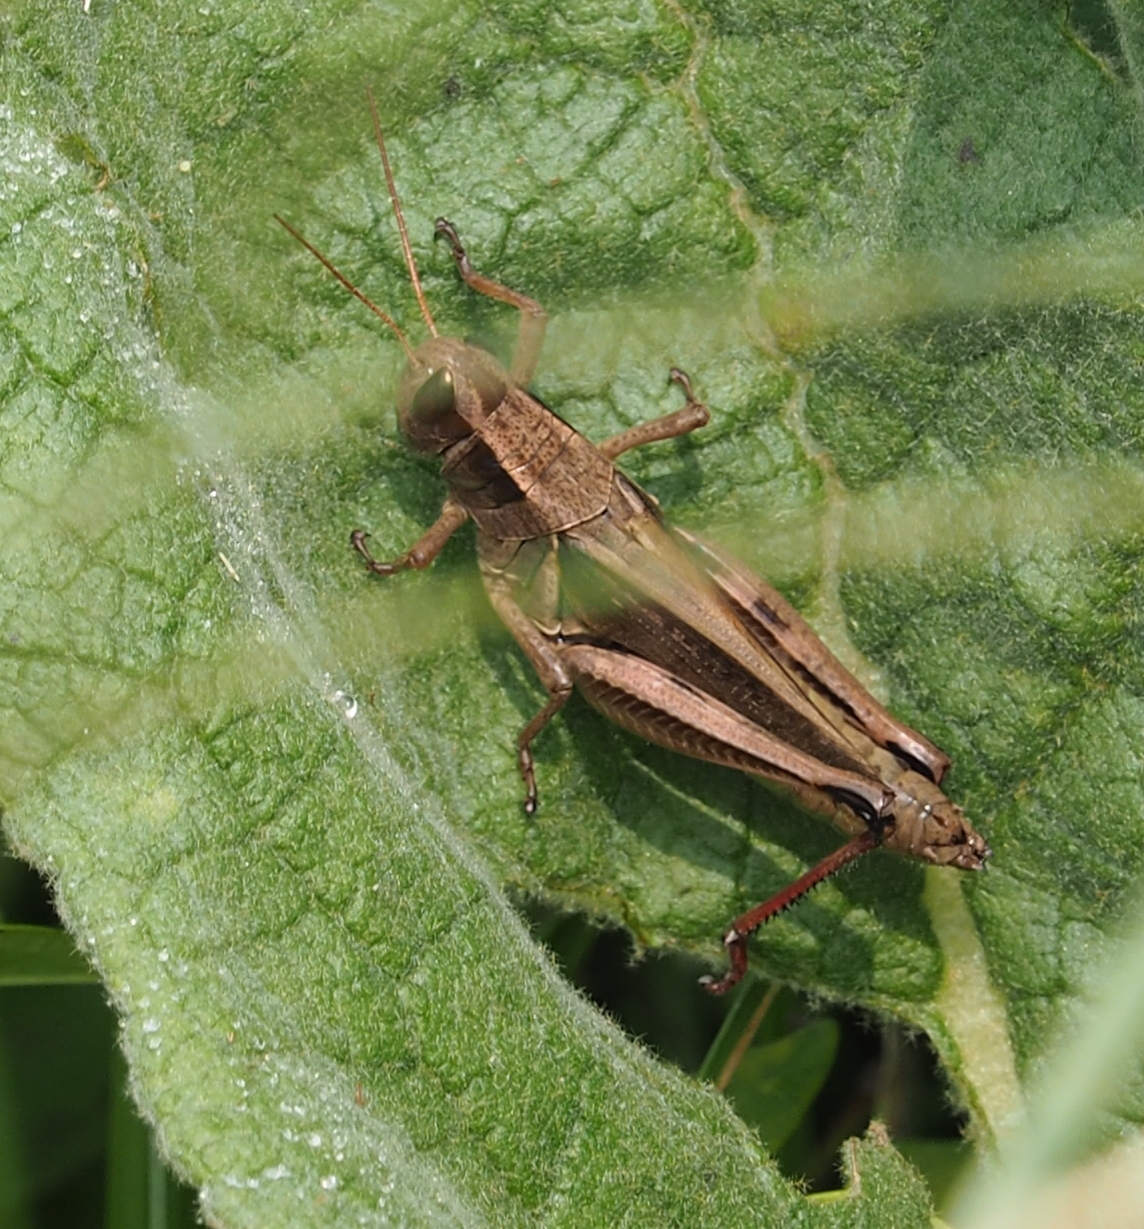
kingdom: Animalia
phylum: Arthropoda
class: Insecta
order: Orthoptera
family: Acrididae
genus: Melanoplus
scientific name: Melanoplus femurrubrum
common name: Red-legged grasshopper
